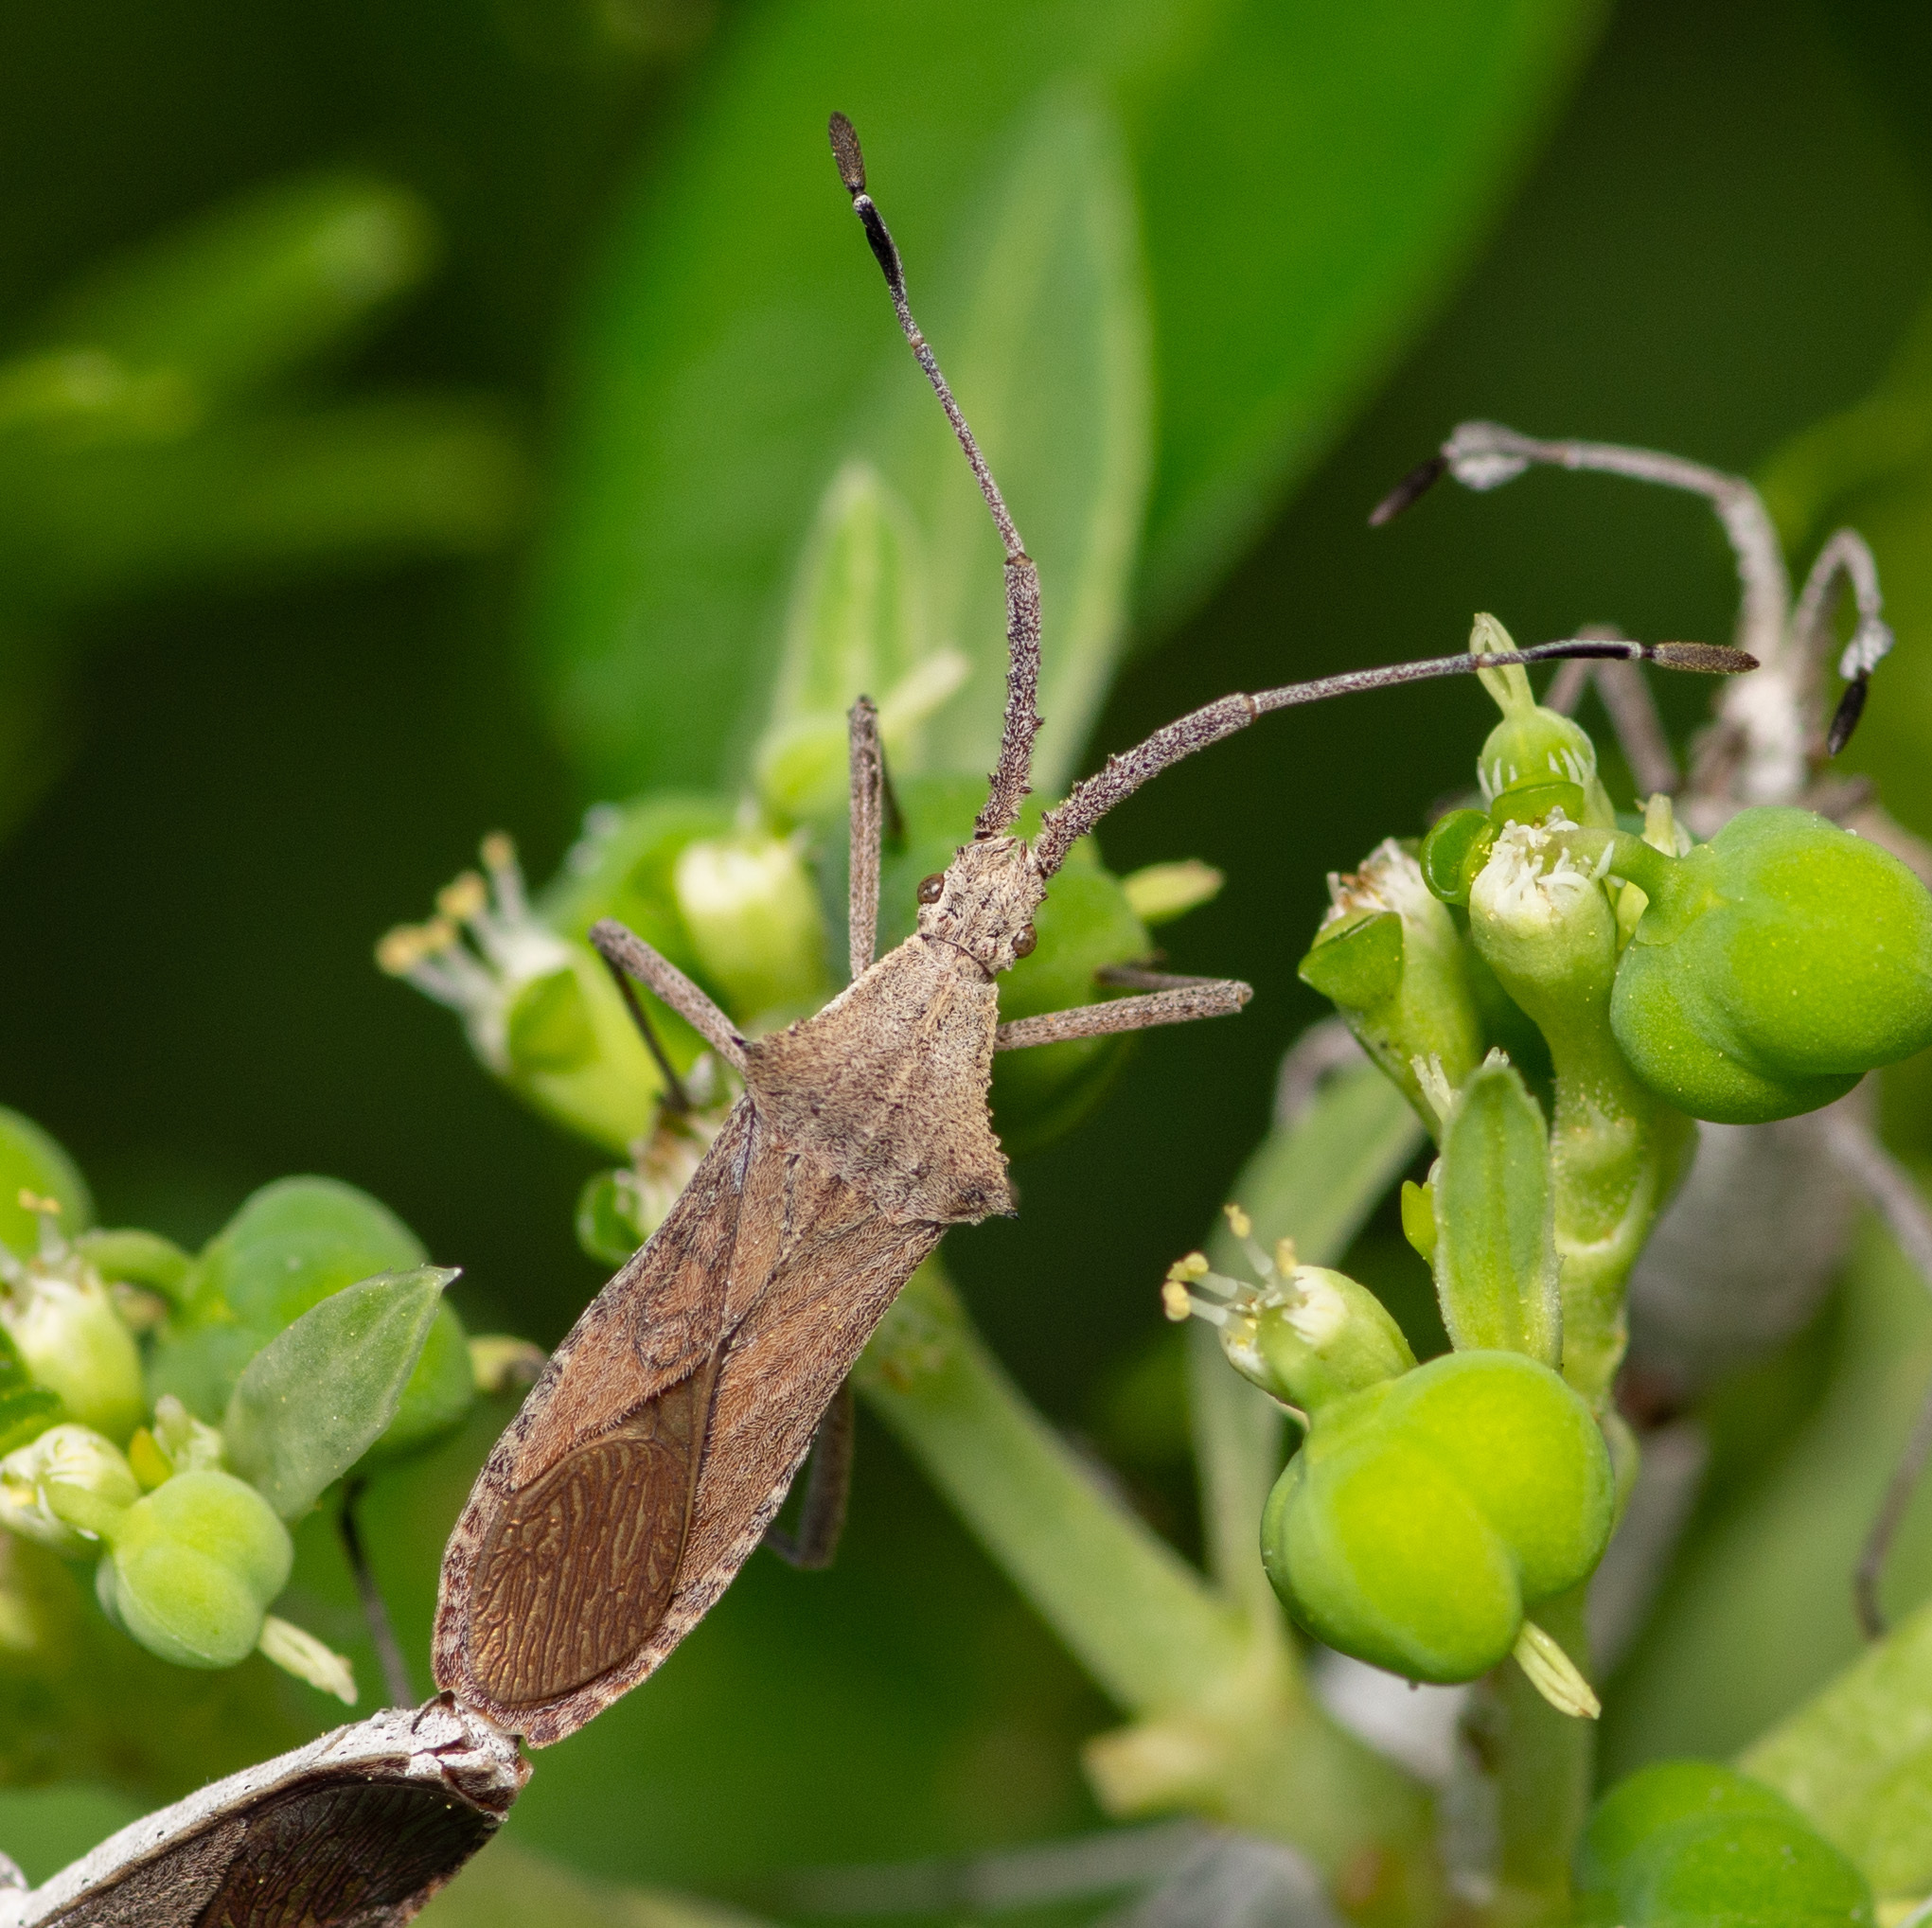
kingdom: Animalia
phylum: Arthropoda
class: Insecta
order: Hemiptera
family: Coreidae
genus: Chariesterus
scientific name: Chariesterus antennator
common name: Flat horned coreid
